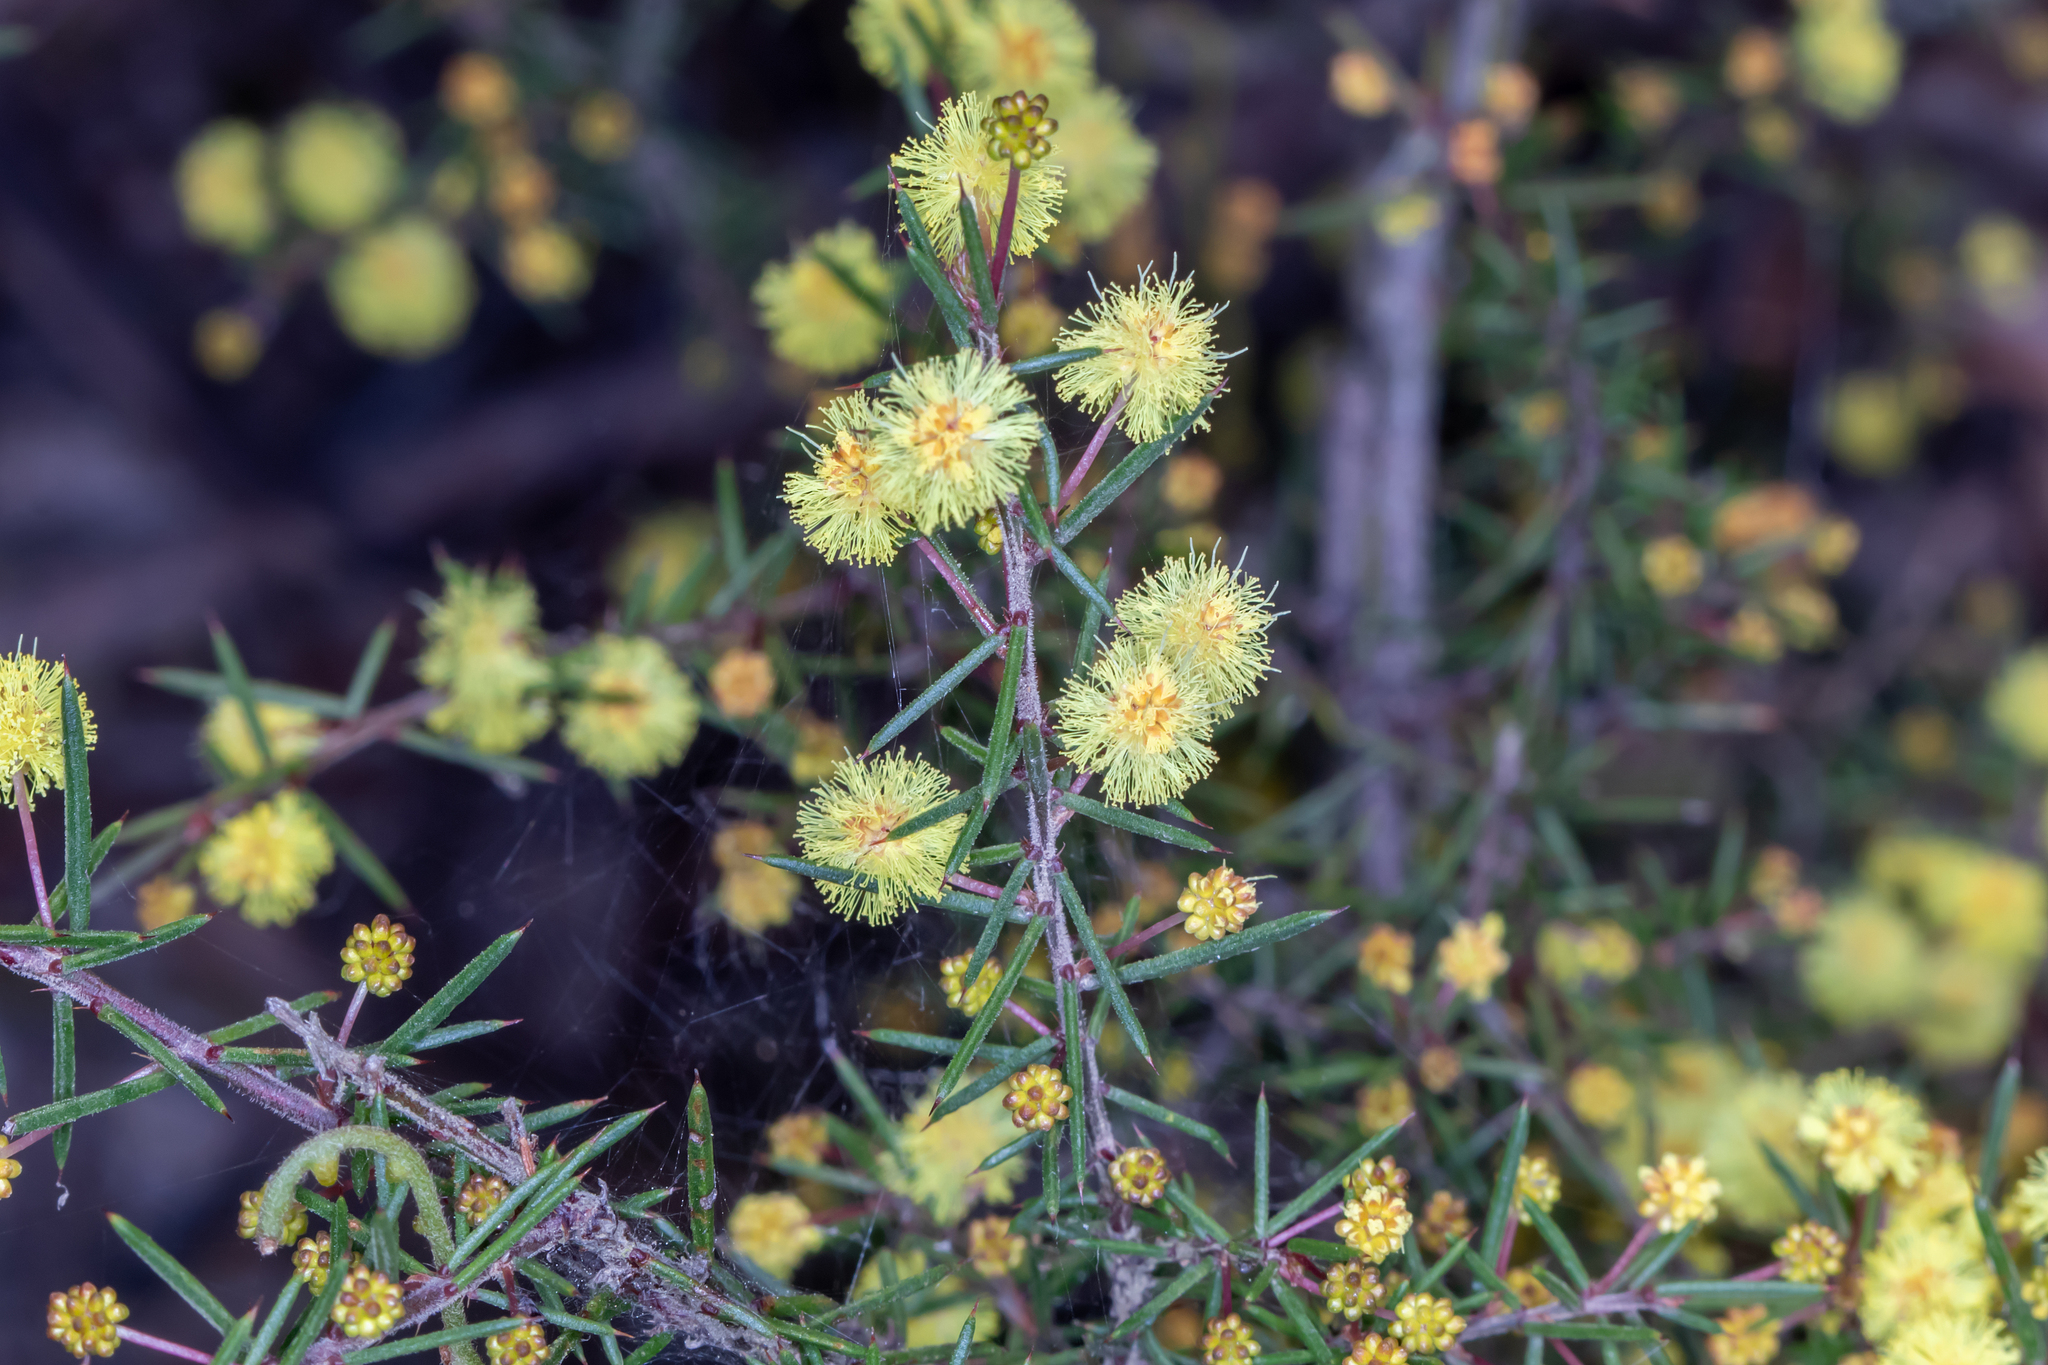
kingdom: Plantae
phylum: Tracheophyta
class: Magnoliopsida
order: Fabales
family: Fabaceae
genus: Acacia
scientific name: Acacia aculeatissima
